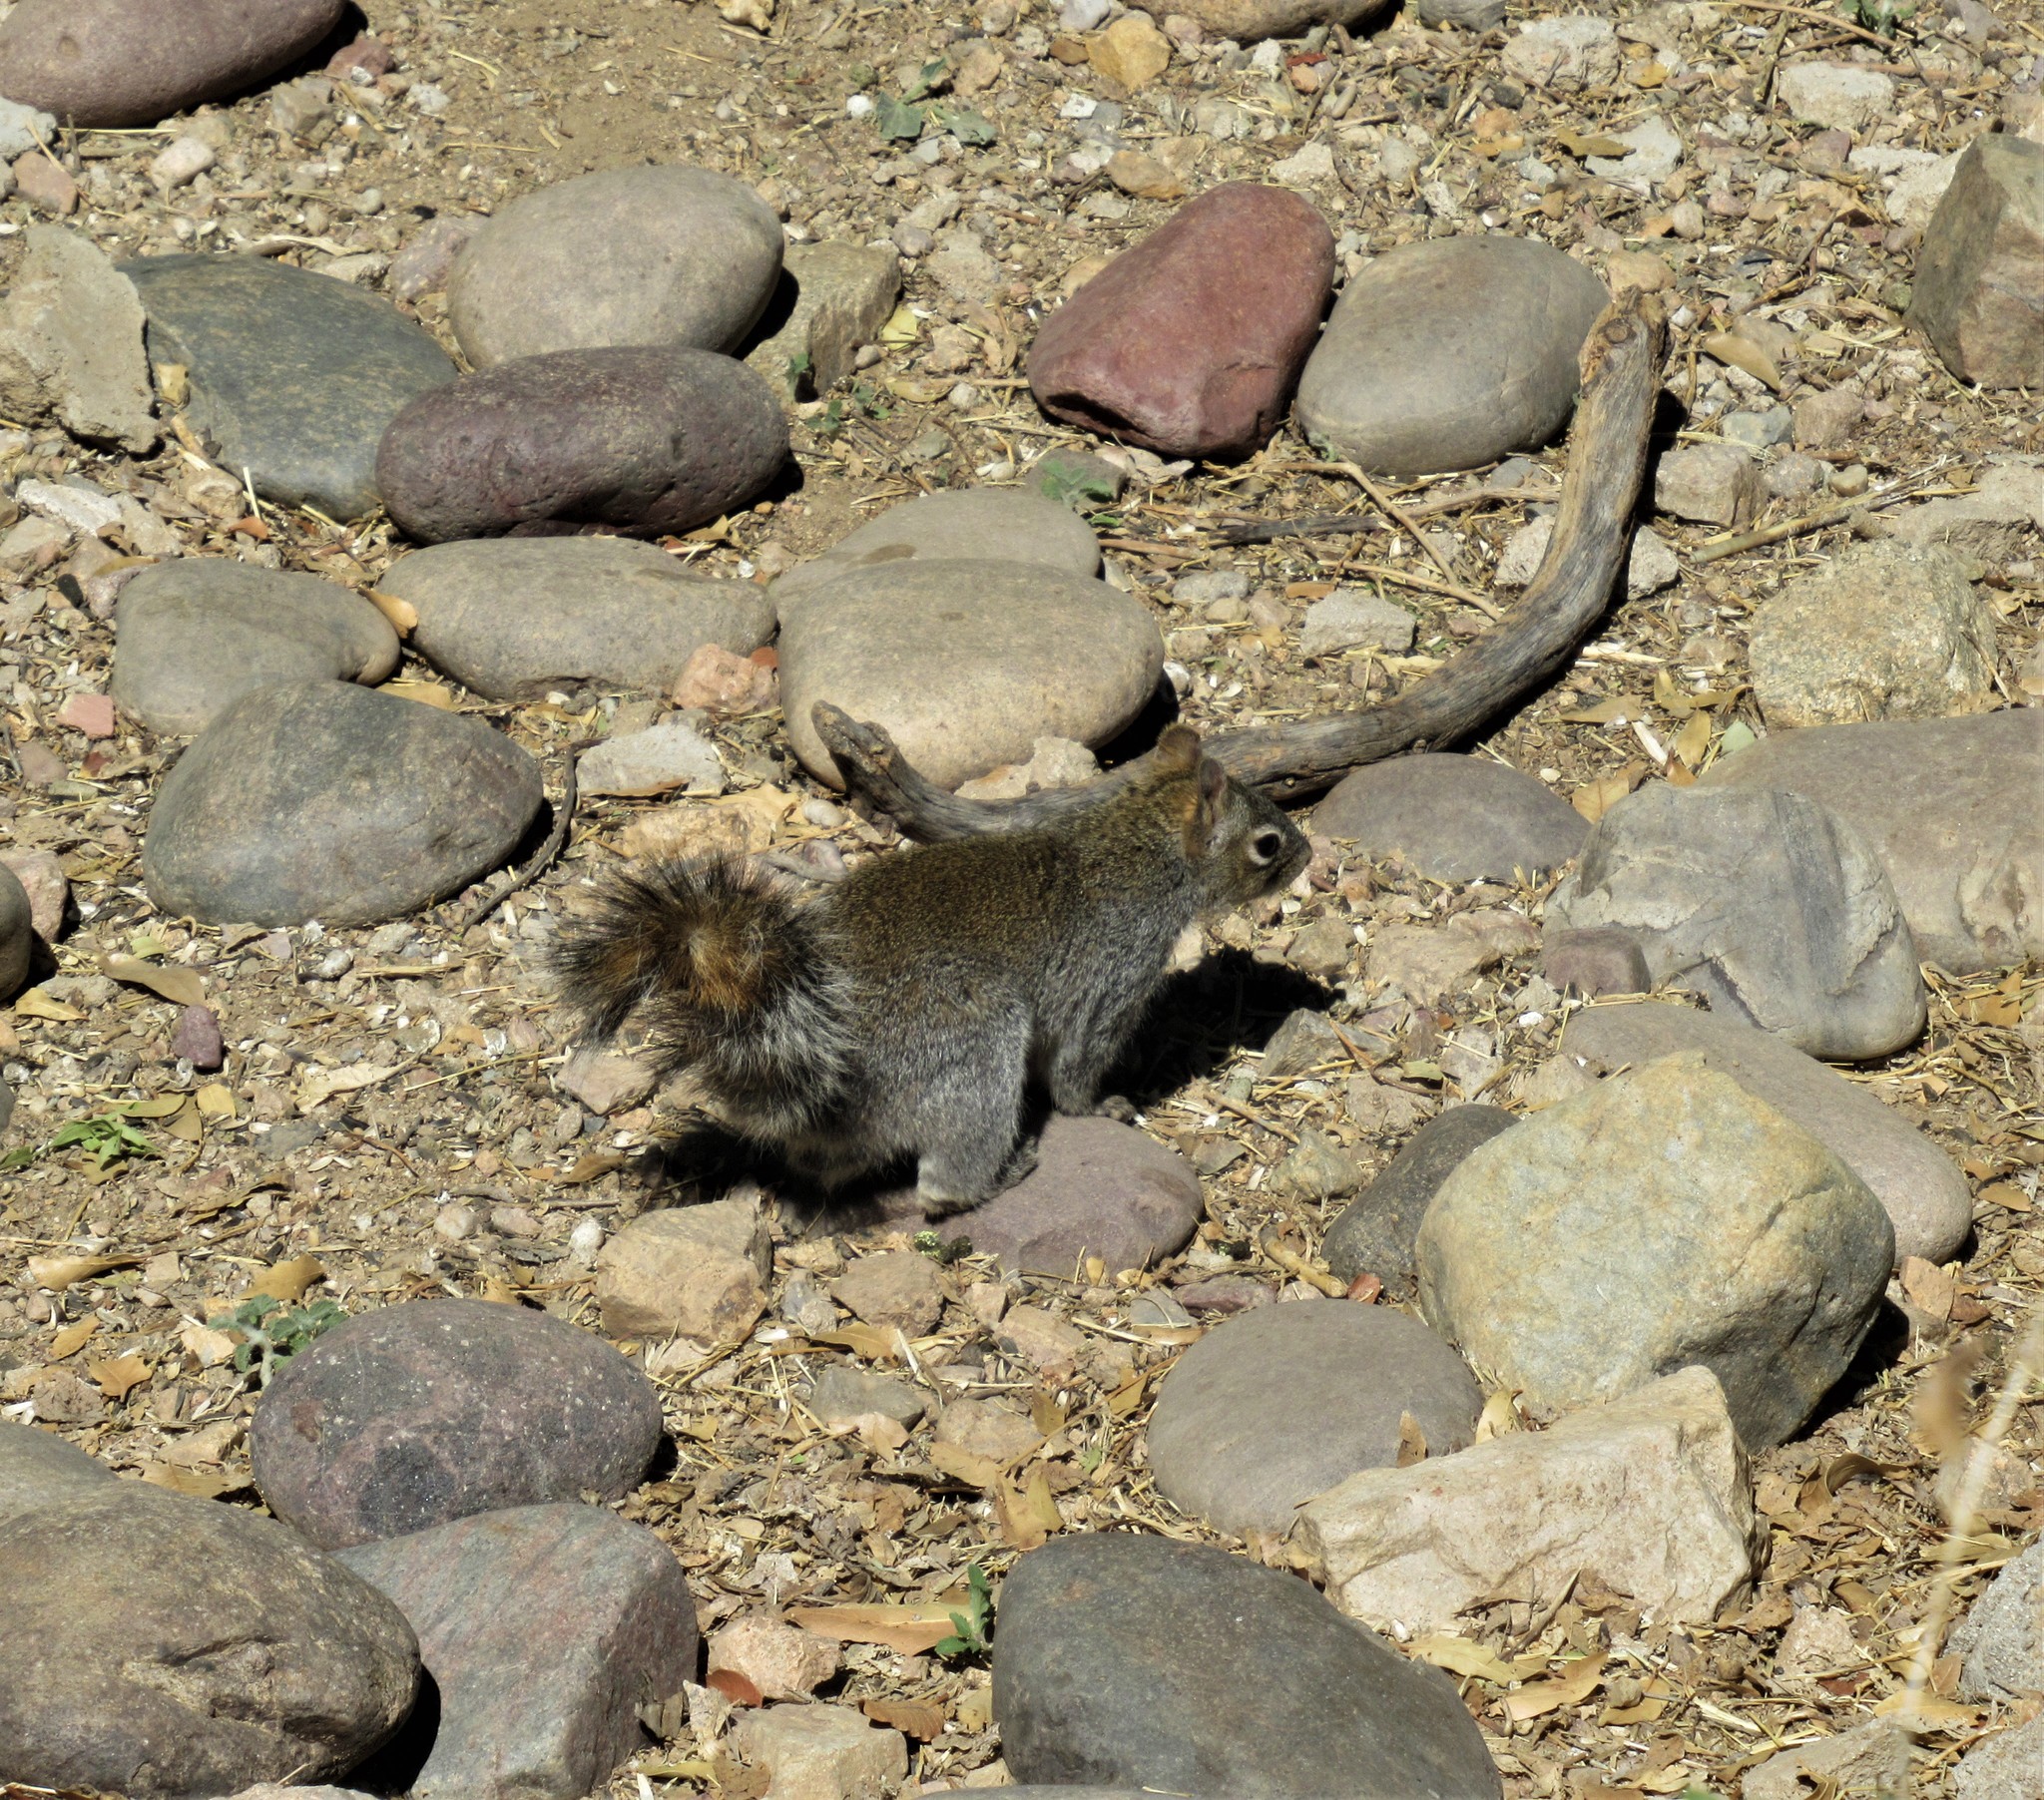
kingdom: Animalia
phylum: Chordata
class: Mammalia
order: Rodentia
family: Sciuridae
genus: Sciurus
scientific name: Sciurus arizonensis
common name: Arizona gray squirrel
